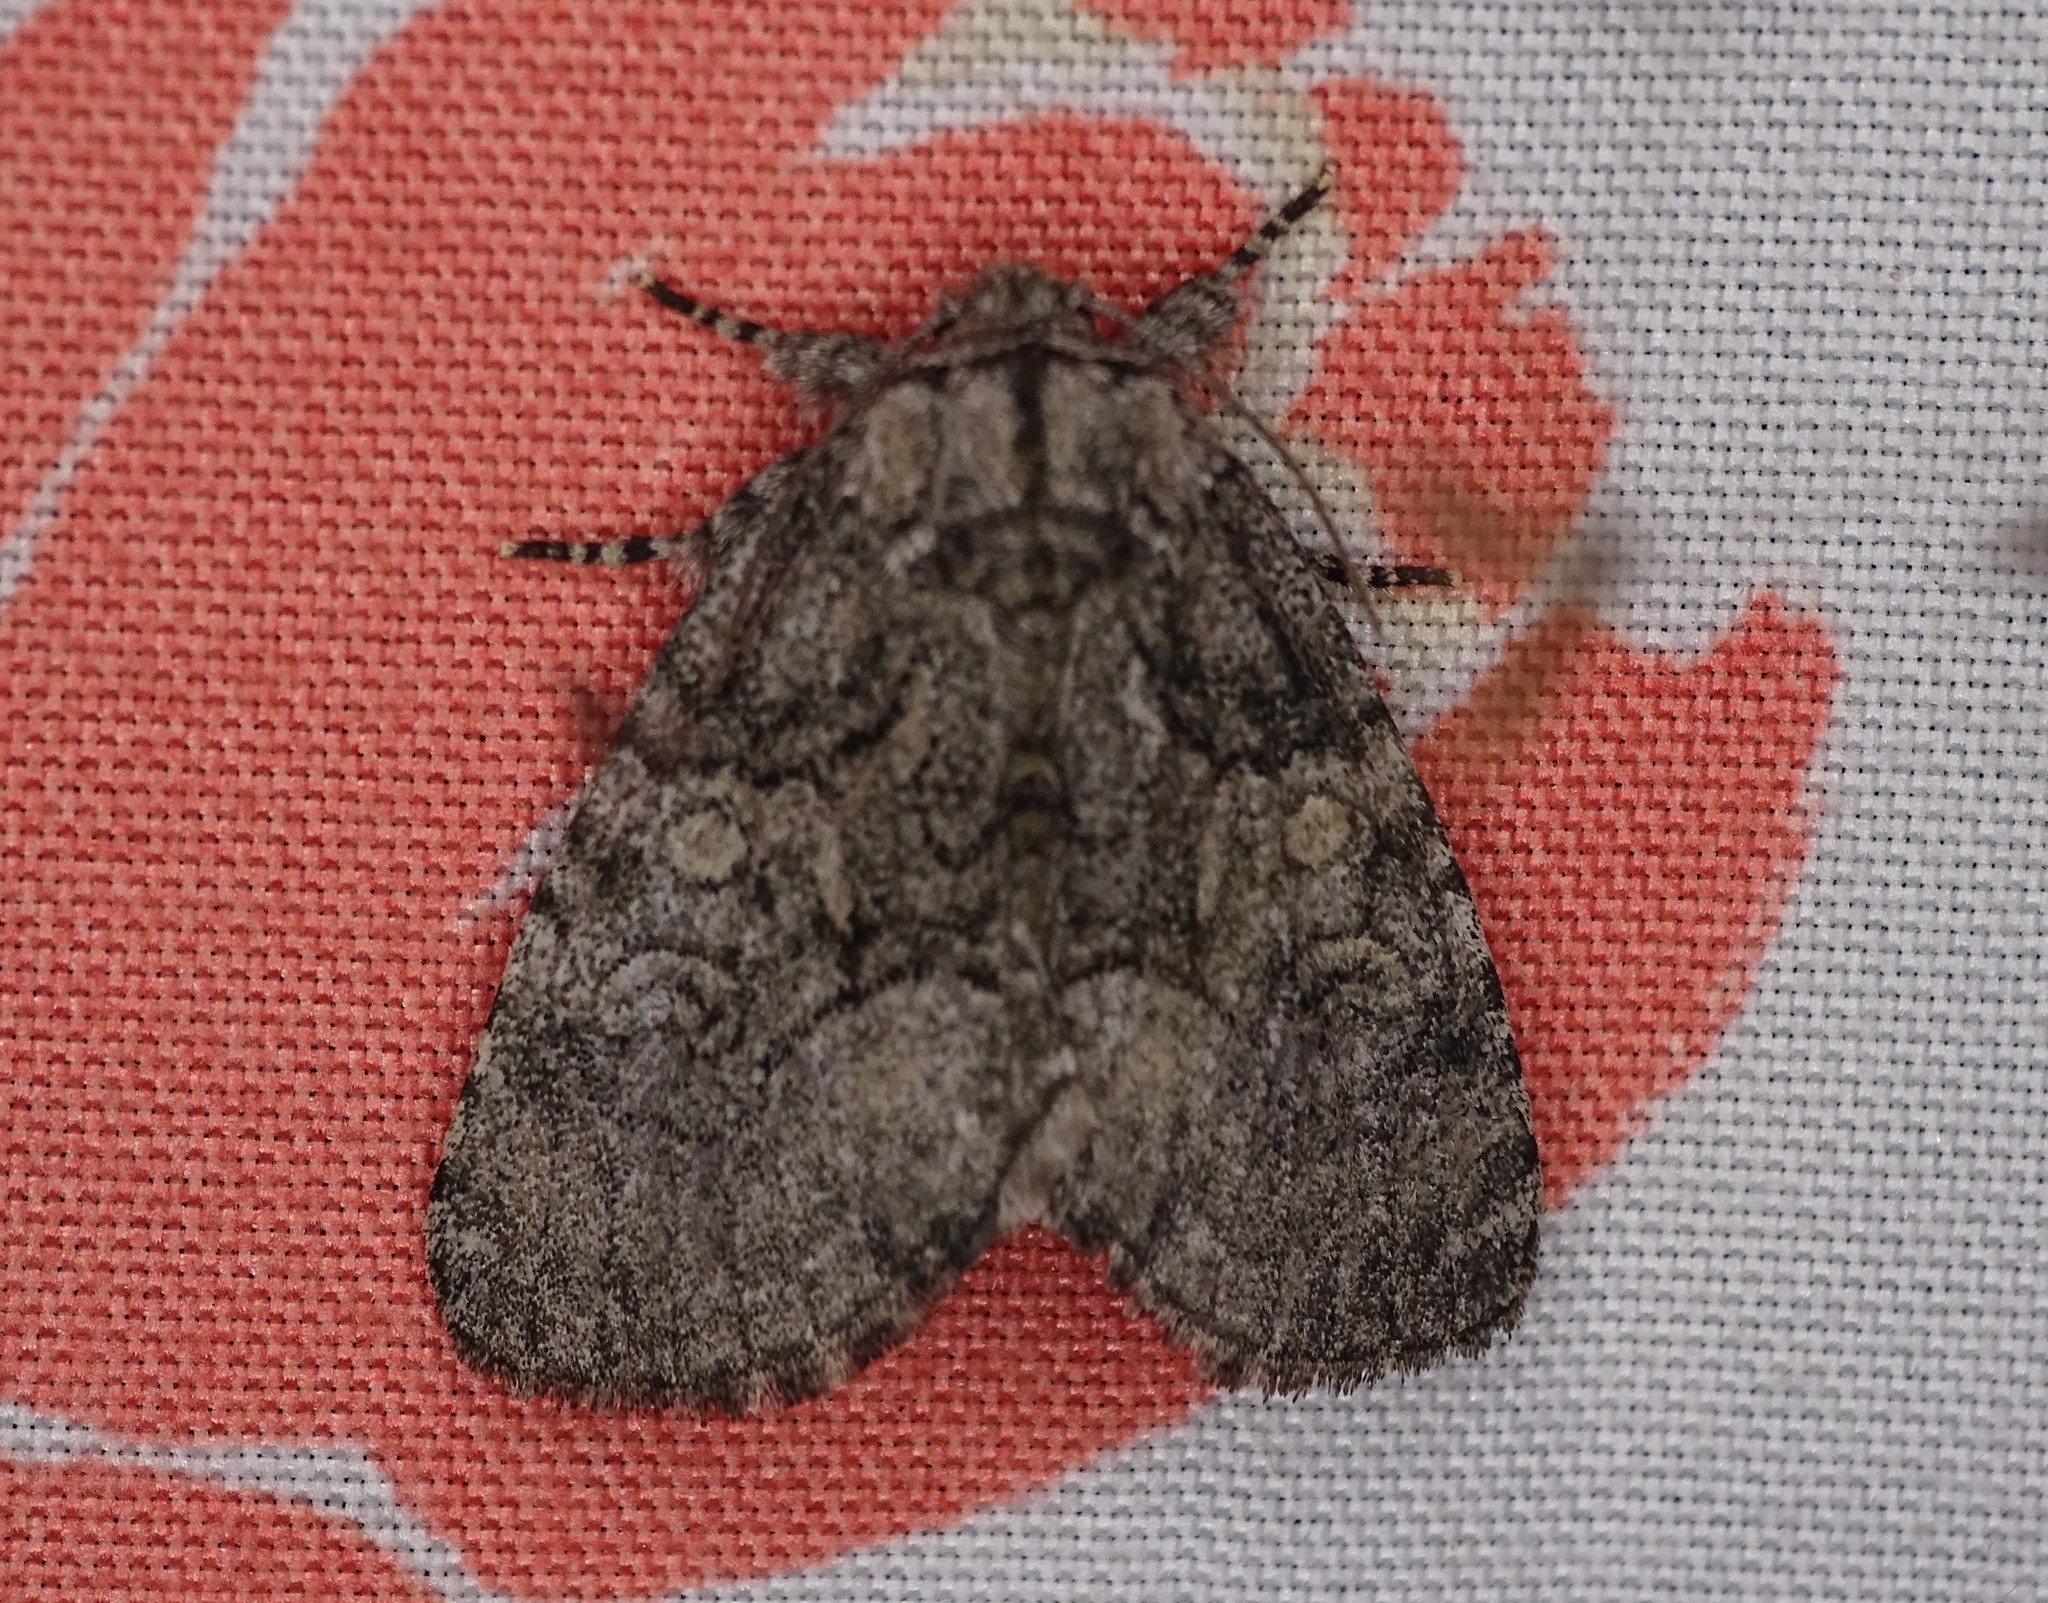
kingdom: Animalia
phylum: Arthropoda
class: Insecta
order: Lepidoptera
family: Noctuidae
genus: Raphia
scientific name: Raphia frater
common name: Brother
